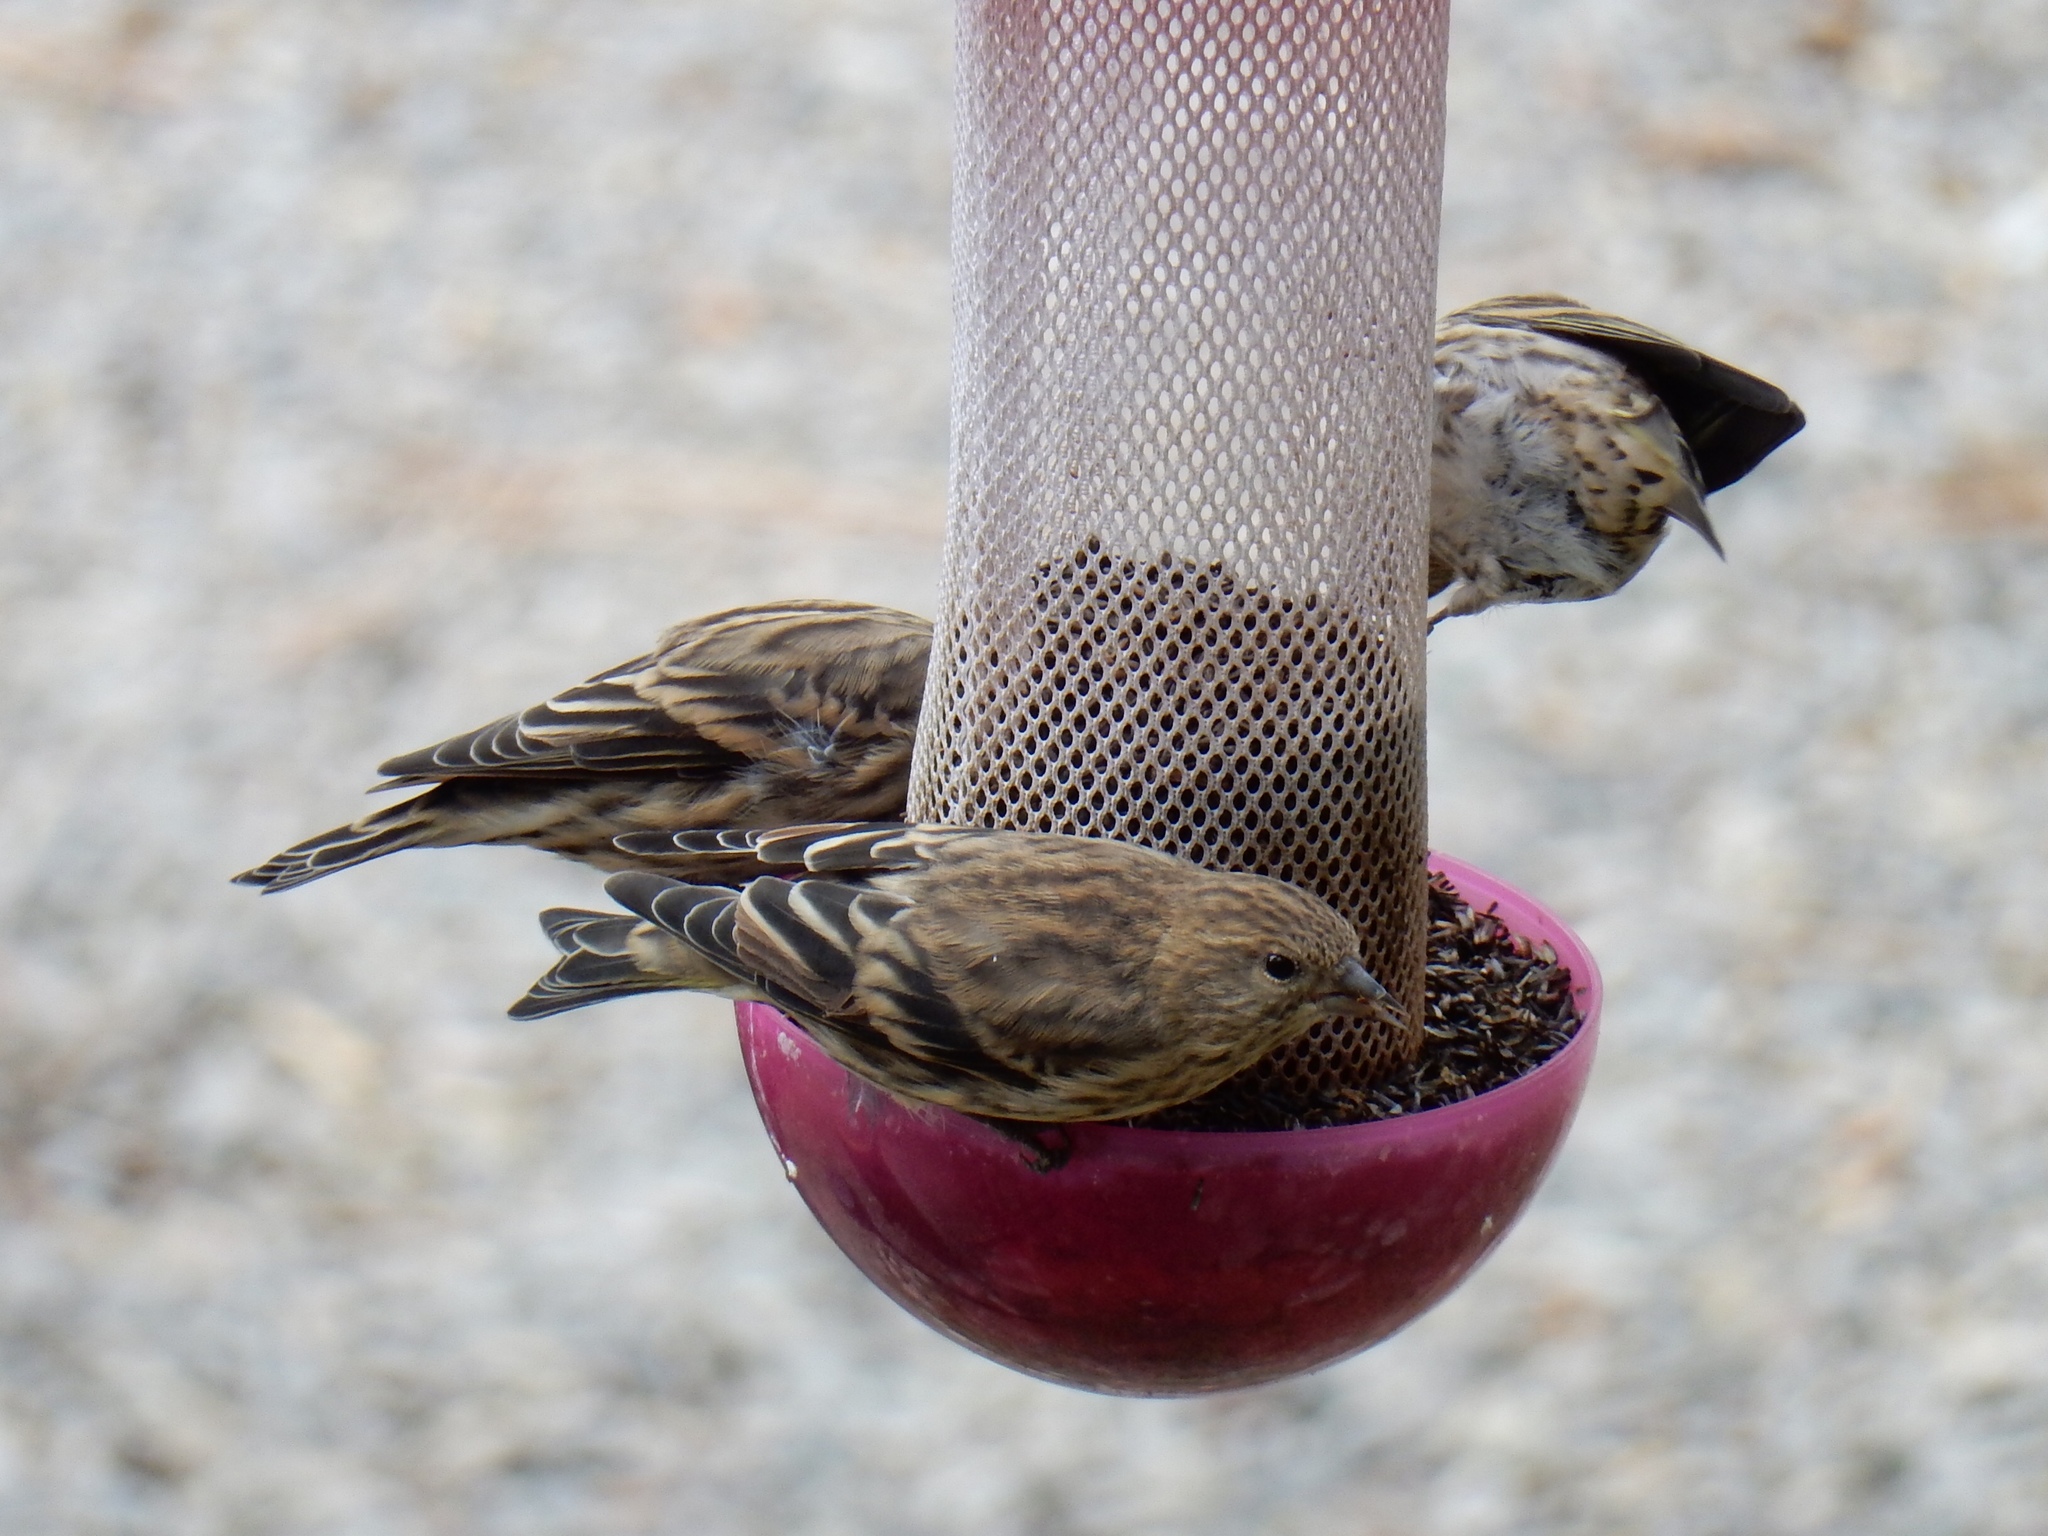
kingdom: Animalia
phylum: Chordata
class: Aves
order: Passeriformes
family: Fringillidae
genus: Spinus
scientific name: Spinus pinus
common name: Pine siskin
